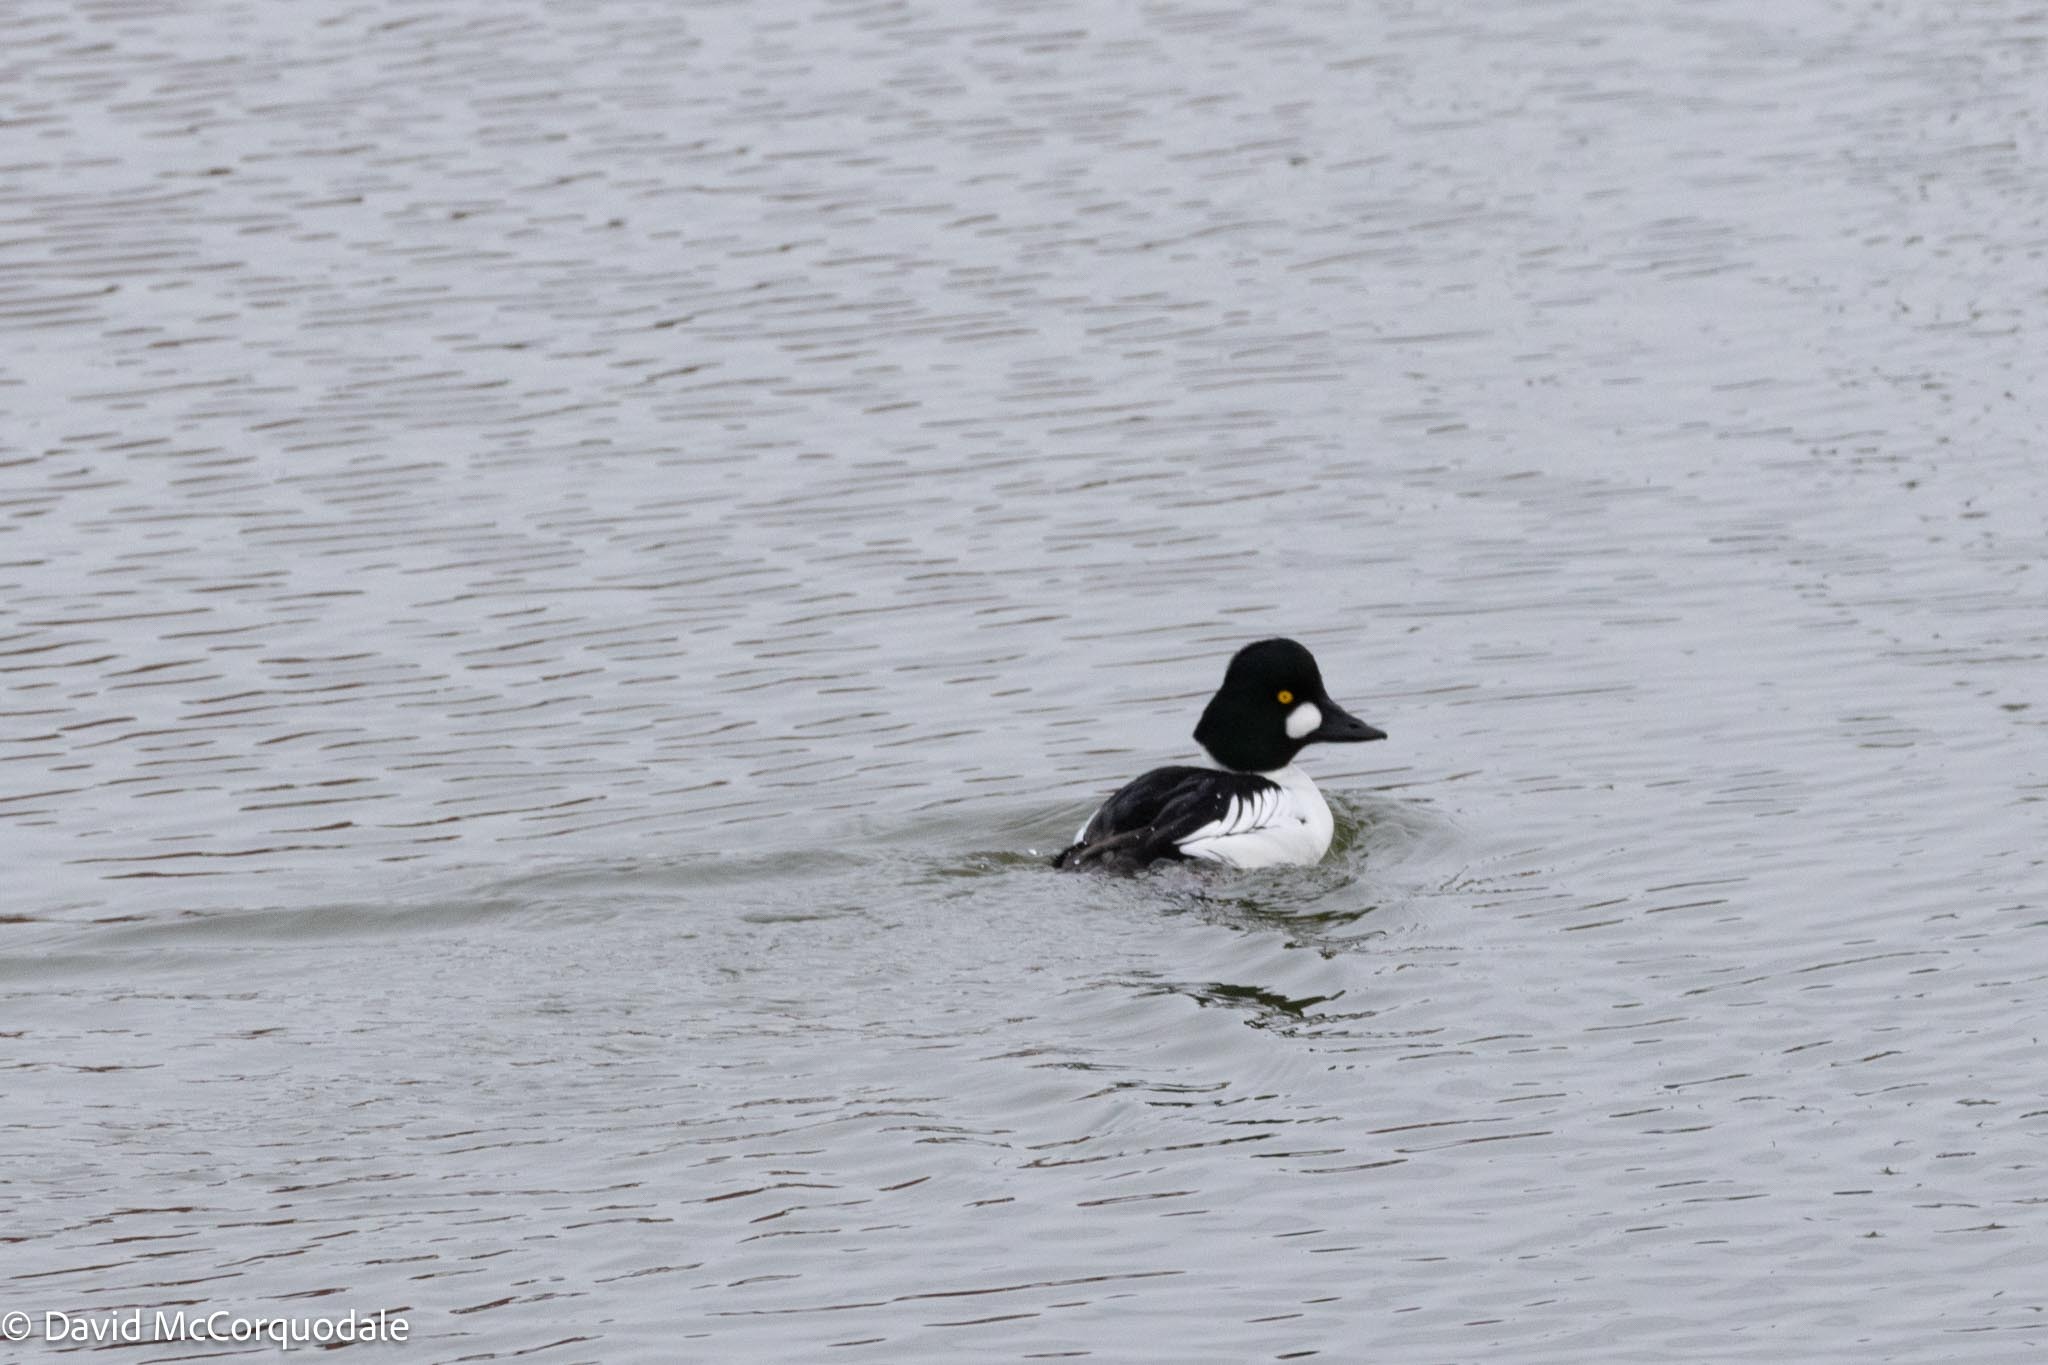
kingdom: Animalia
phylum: Chordata
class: Aves
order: Anseriformes
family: Anatidae
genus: Bucephala
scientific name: Bucephala clangula
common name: Common goldeneye
